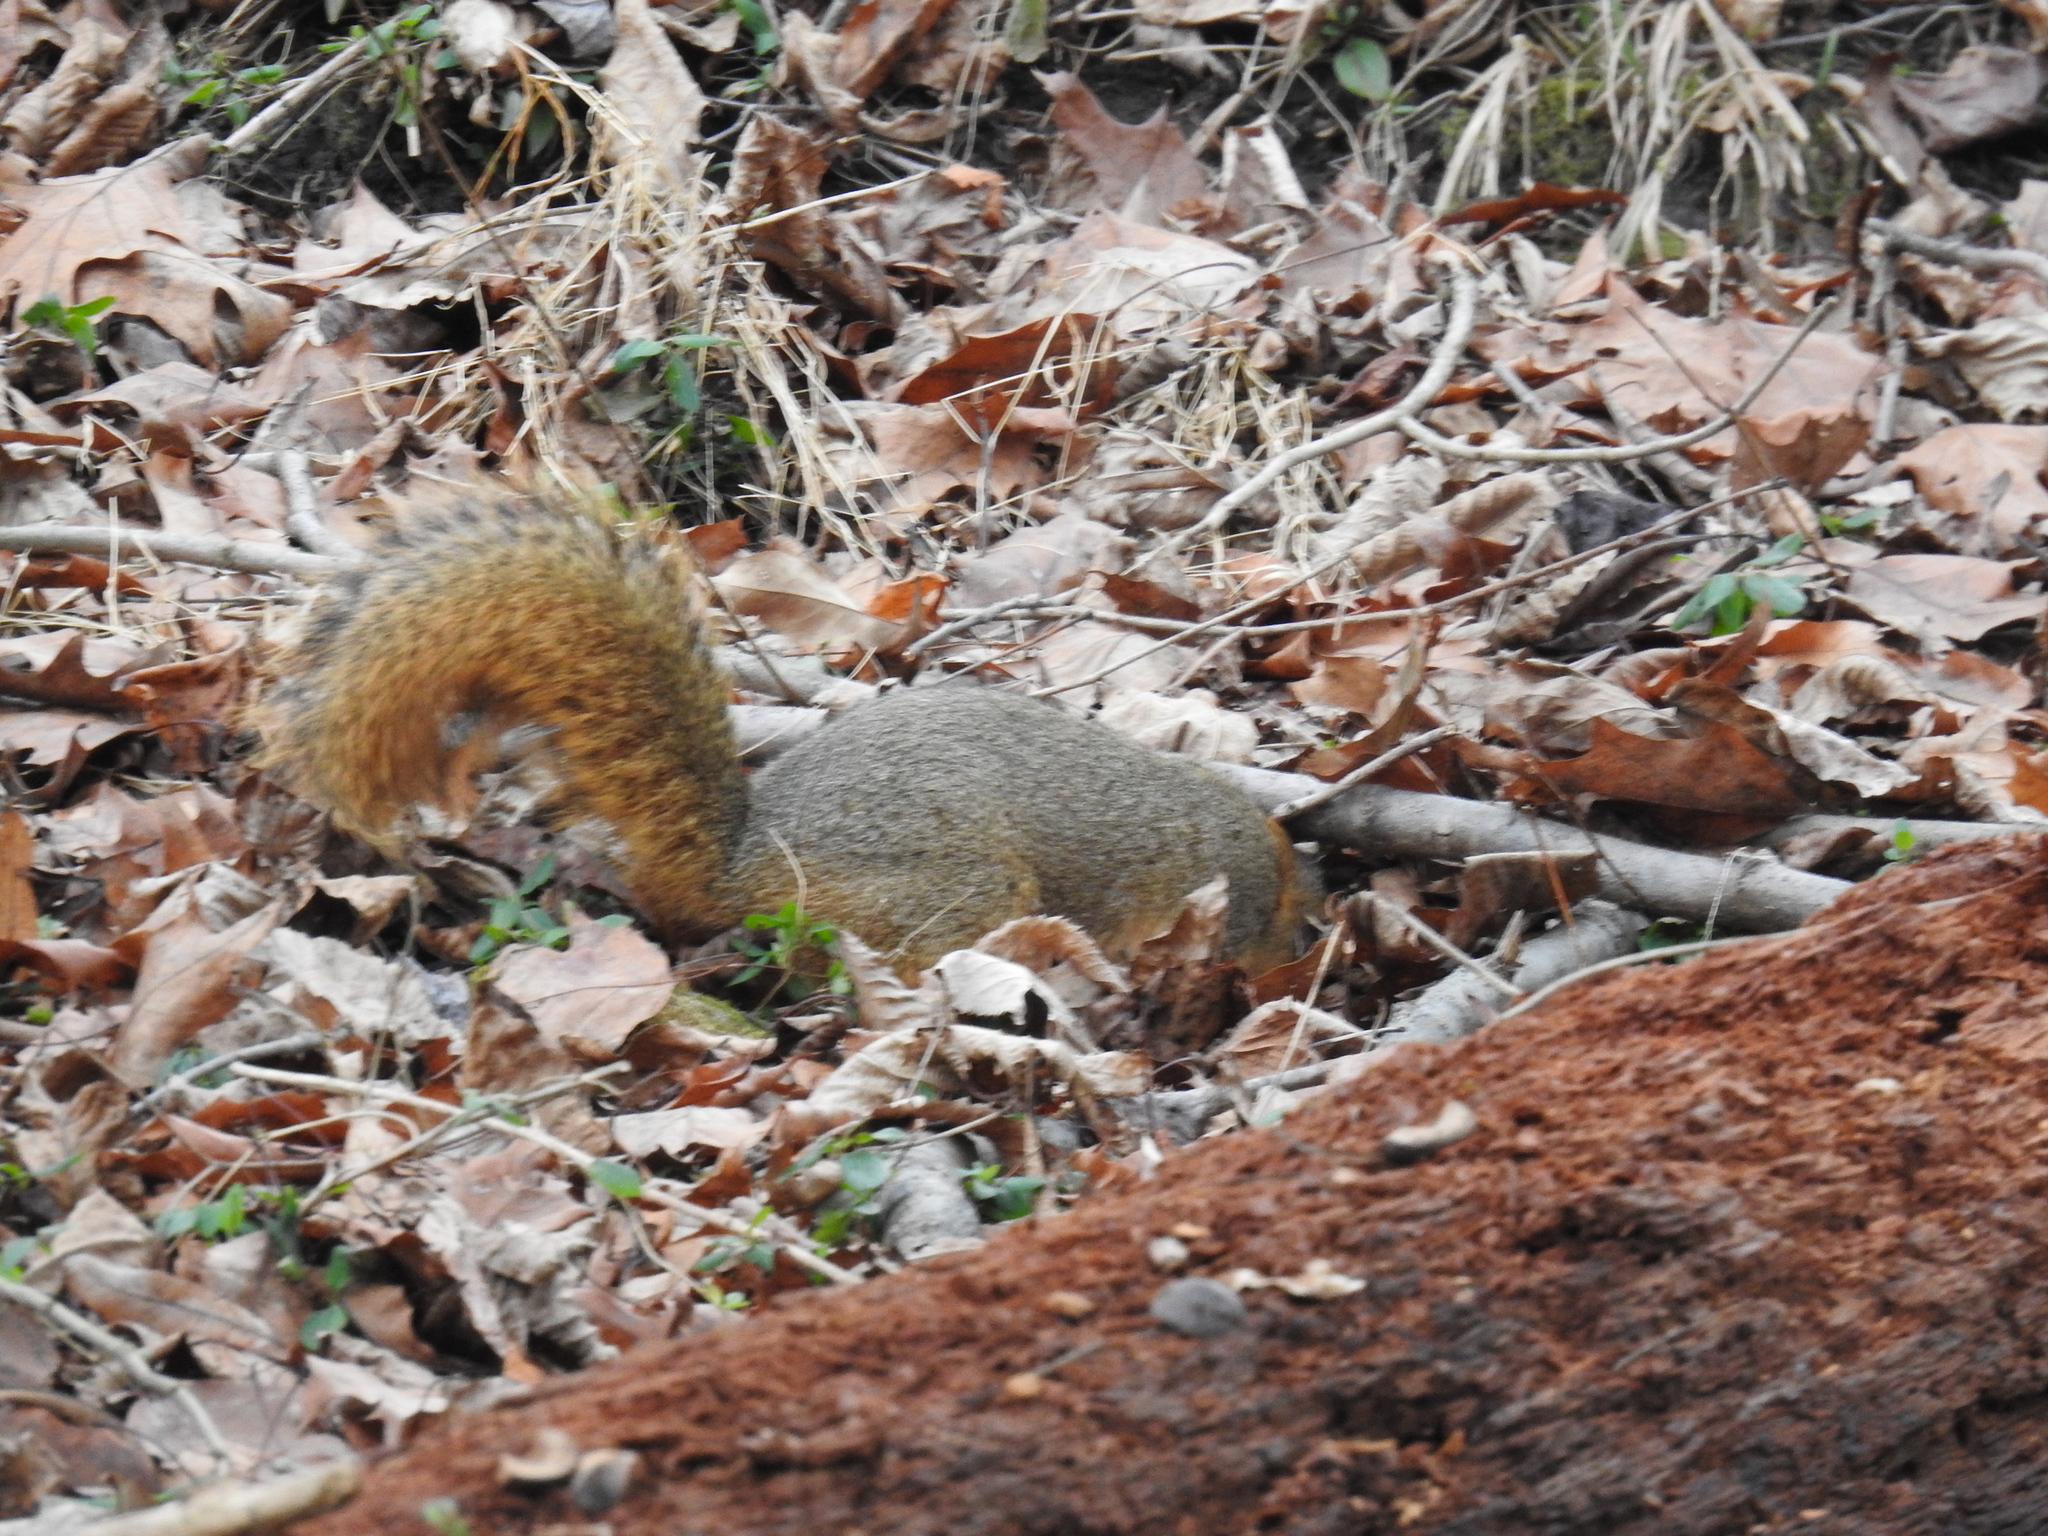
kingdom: Animalia
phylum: Chordata
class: Mammalia
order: Rodentia
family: Sciuridae
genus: Sciurus
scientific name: Sciurus niger
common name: Fox squirrel
